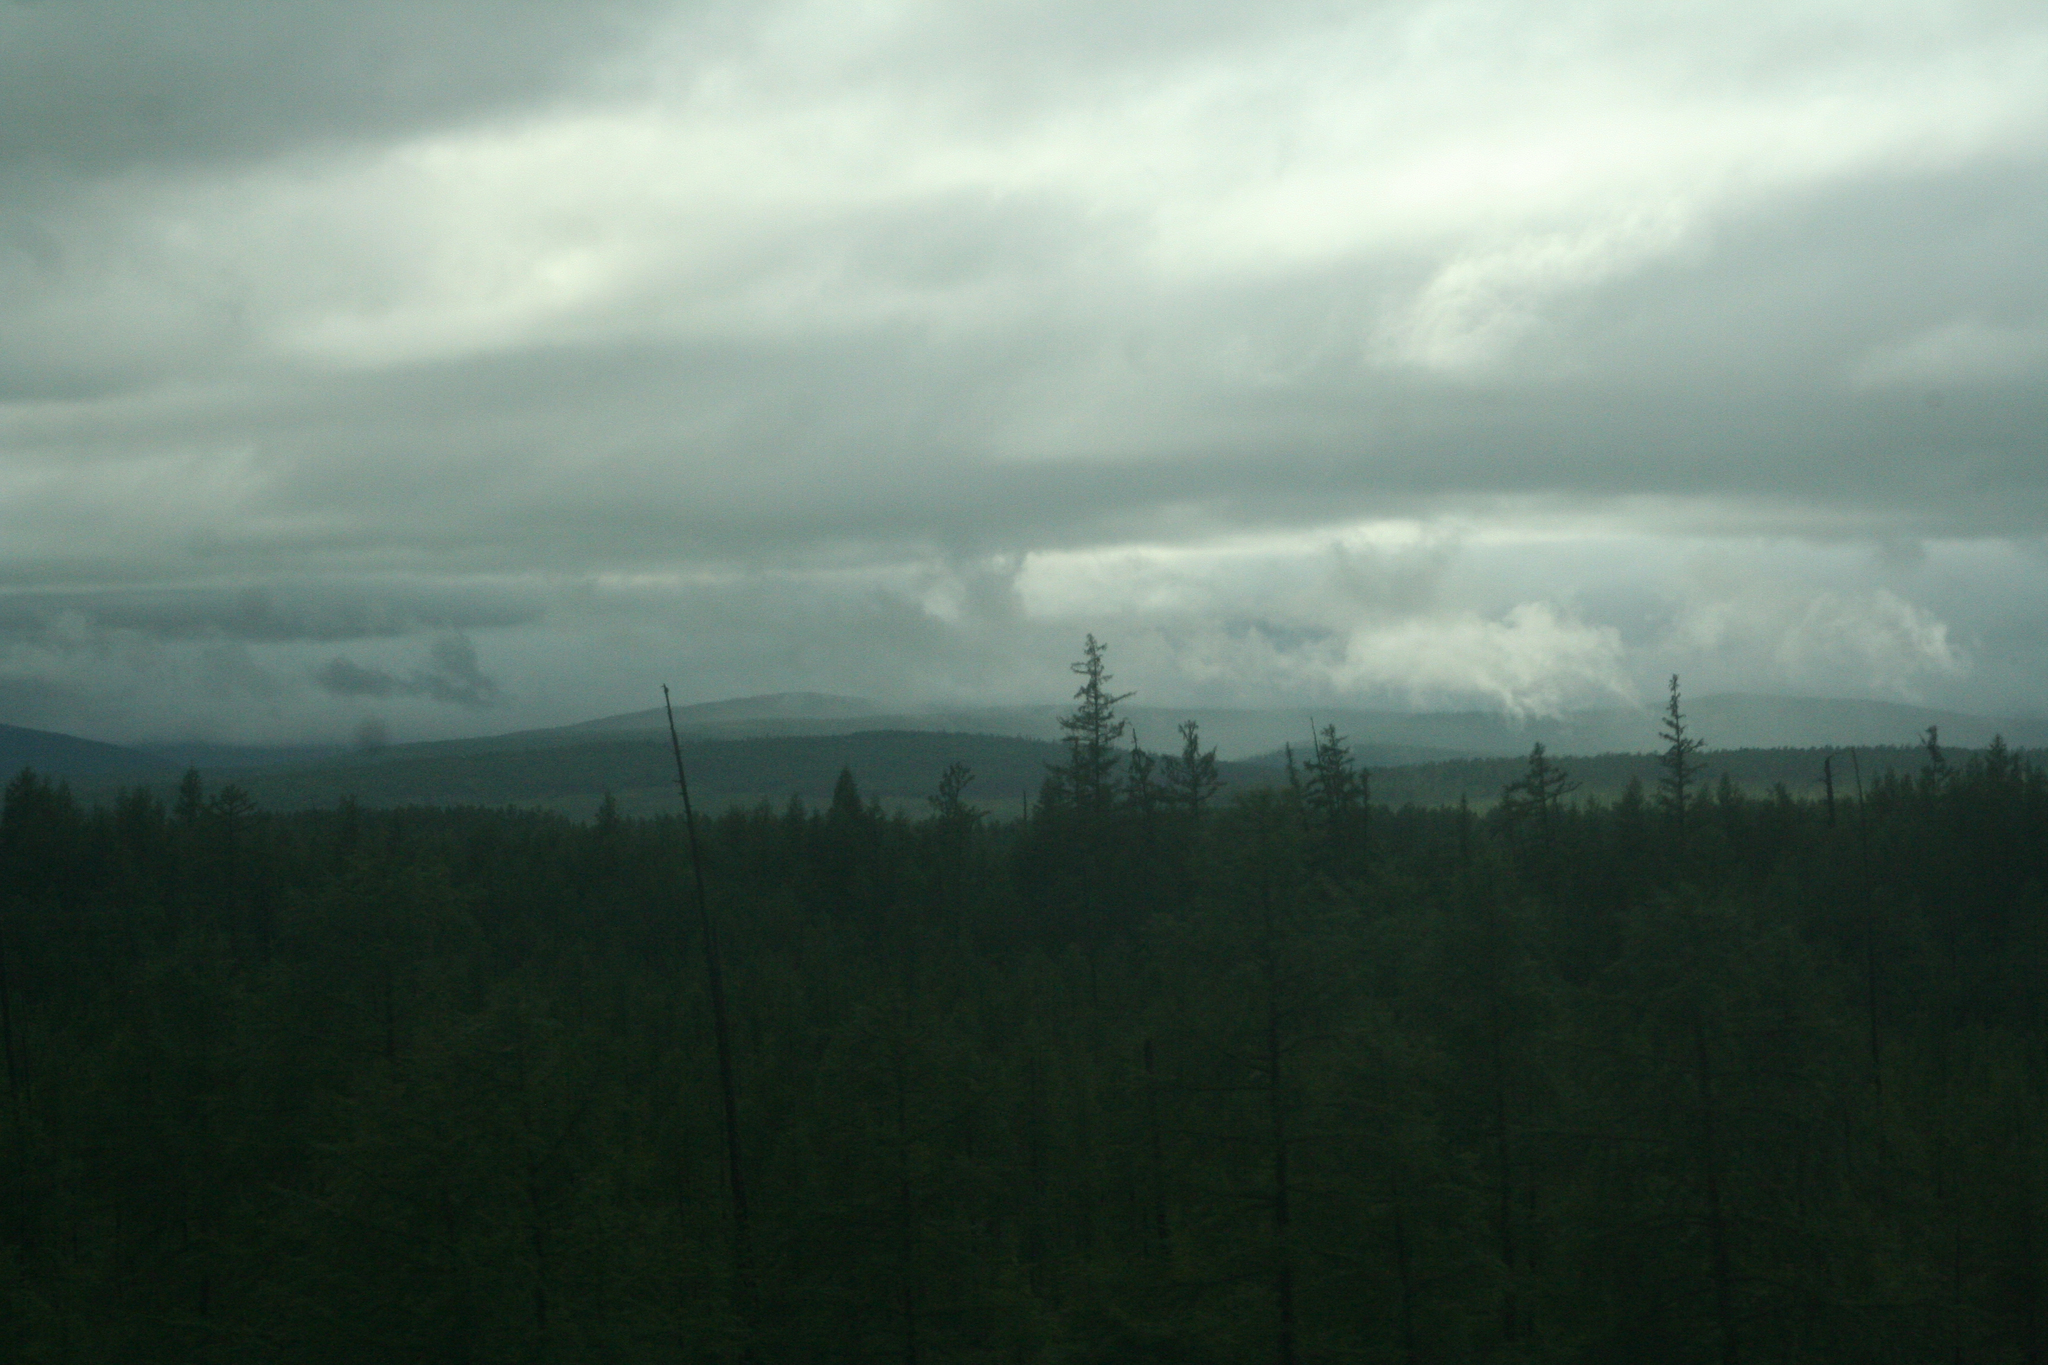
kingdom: Plantae
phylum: Tracheophyta
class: Pinopsida
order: Pinales
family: Pinaceae
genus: Larix
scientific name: Larix gmelinii
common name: Dahurian larch
